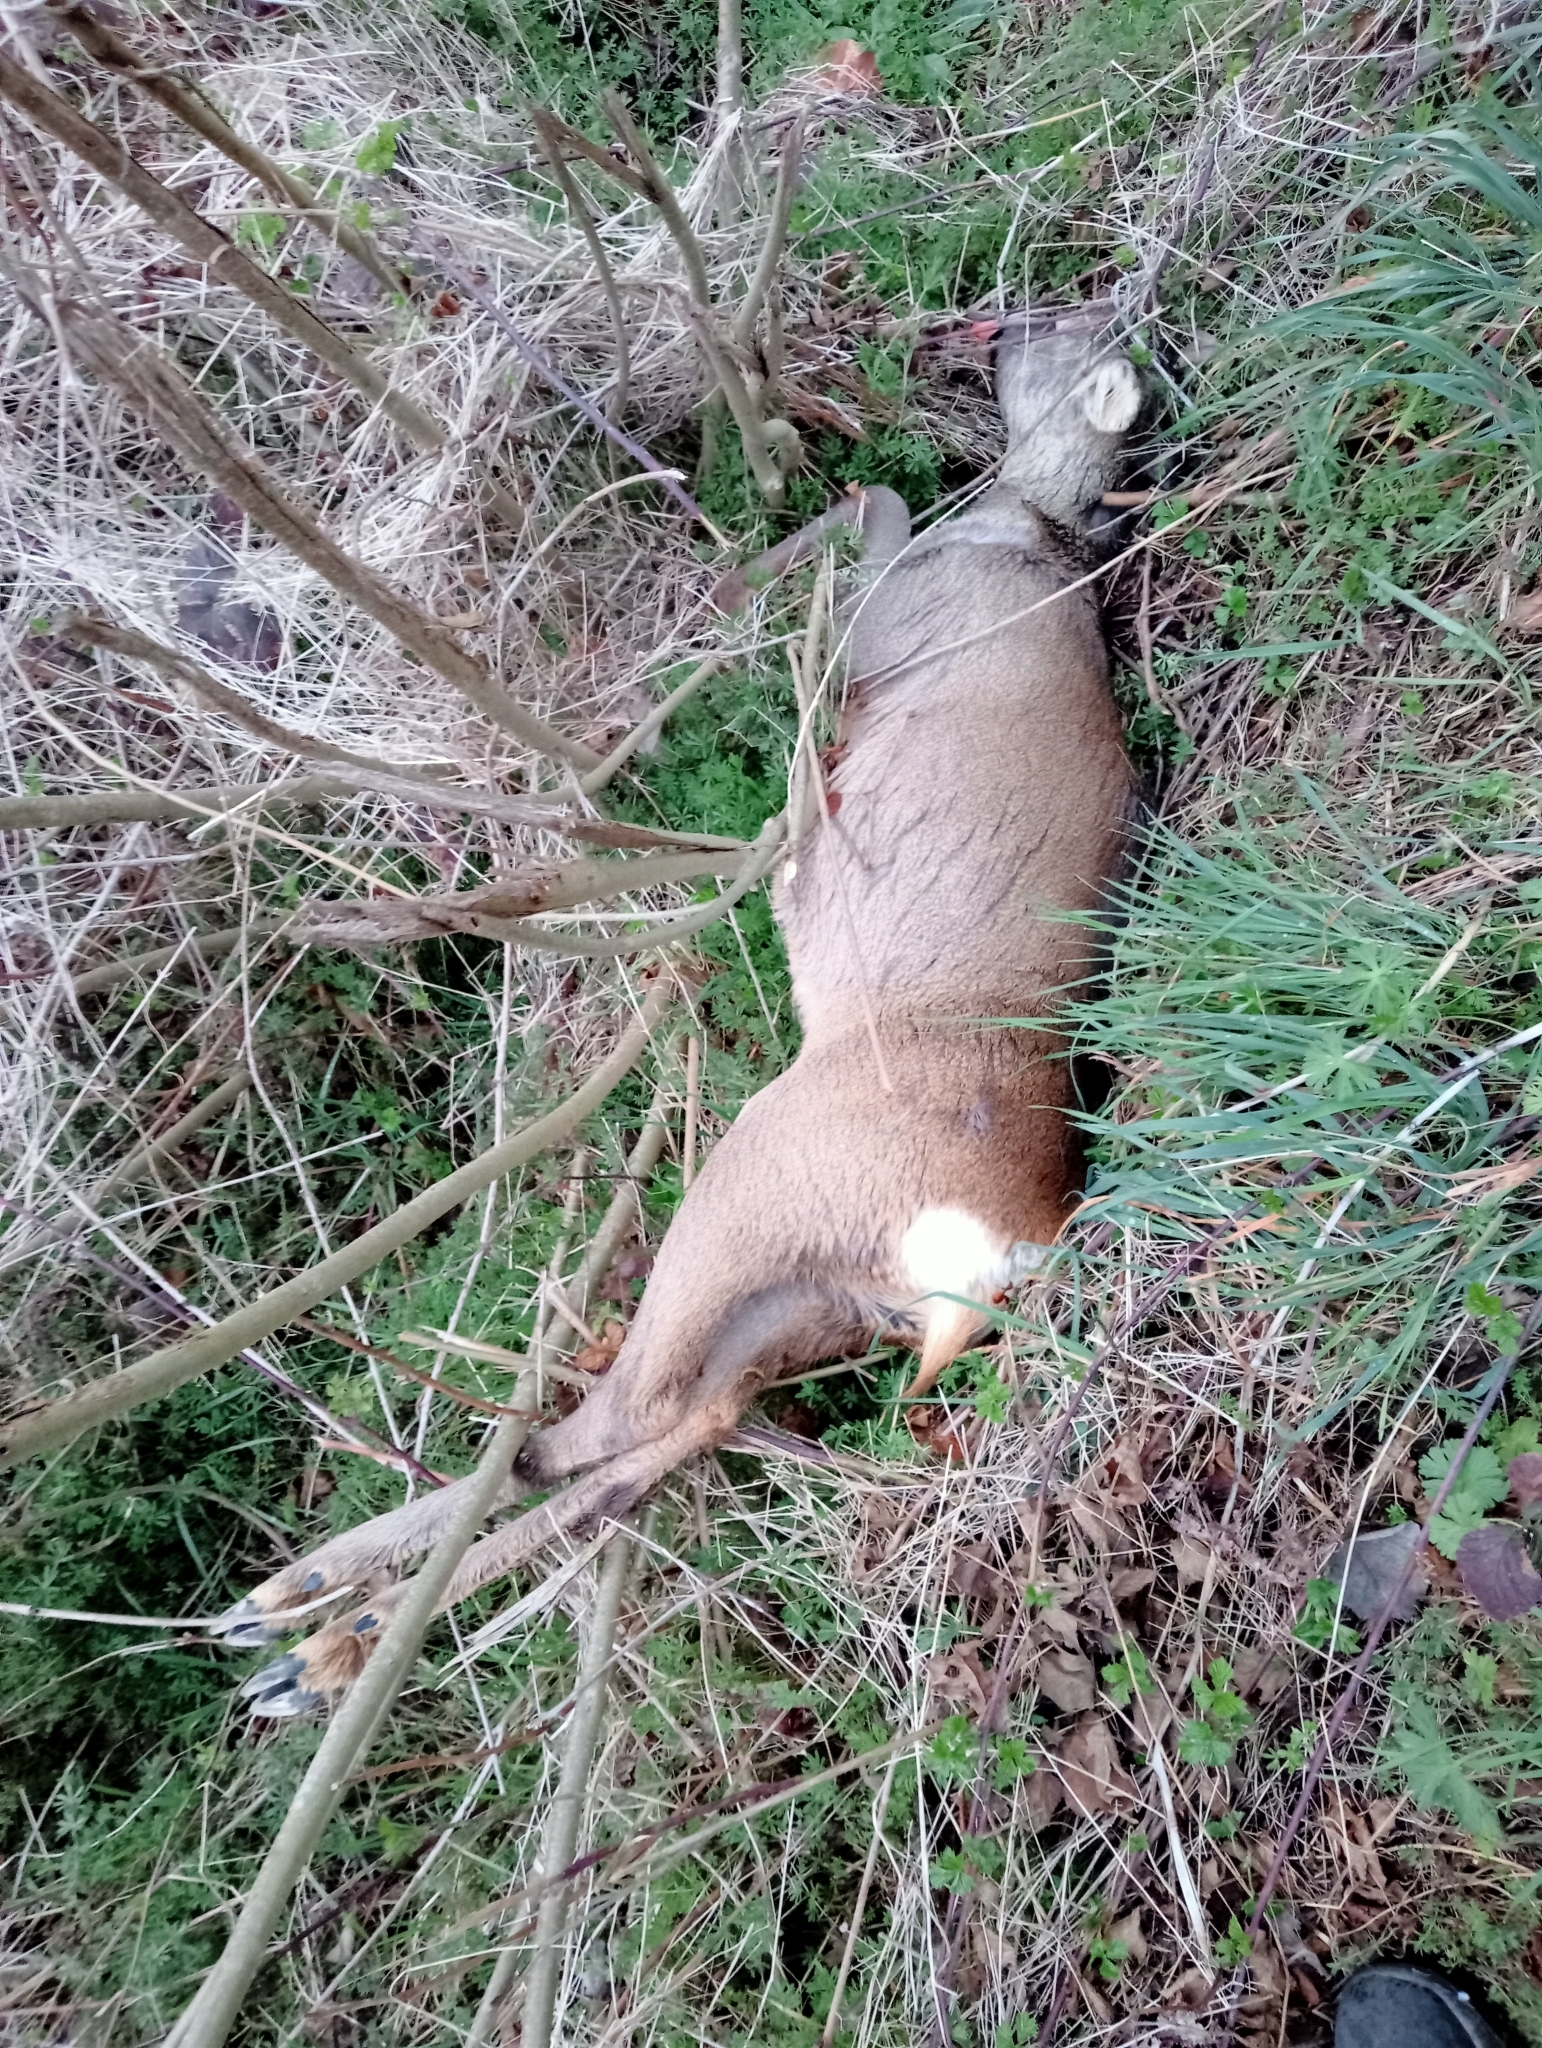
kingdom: Animalia
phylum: Chordata
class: Mammalia
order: Artiodactyla
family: Cervidae
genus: Capreolus
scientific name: Capreolus capreolus
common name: Western roe deer
